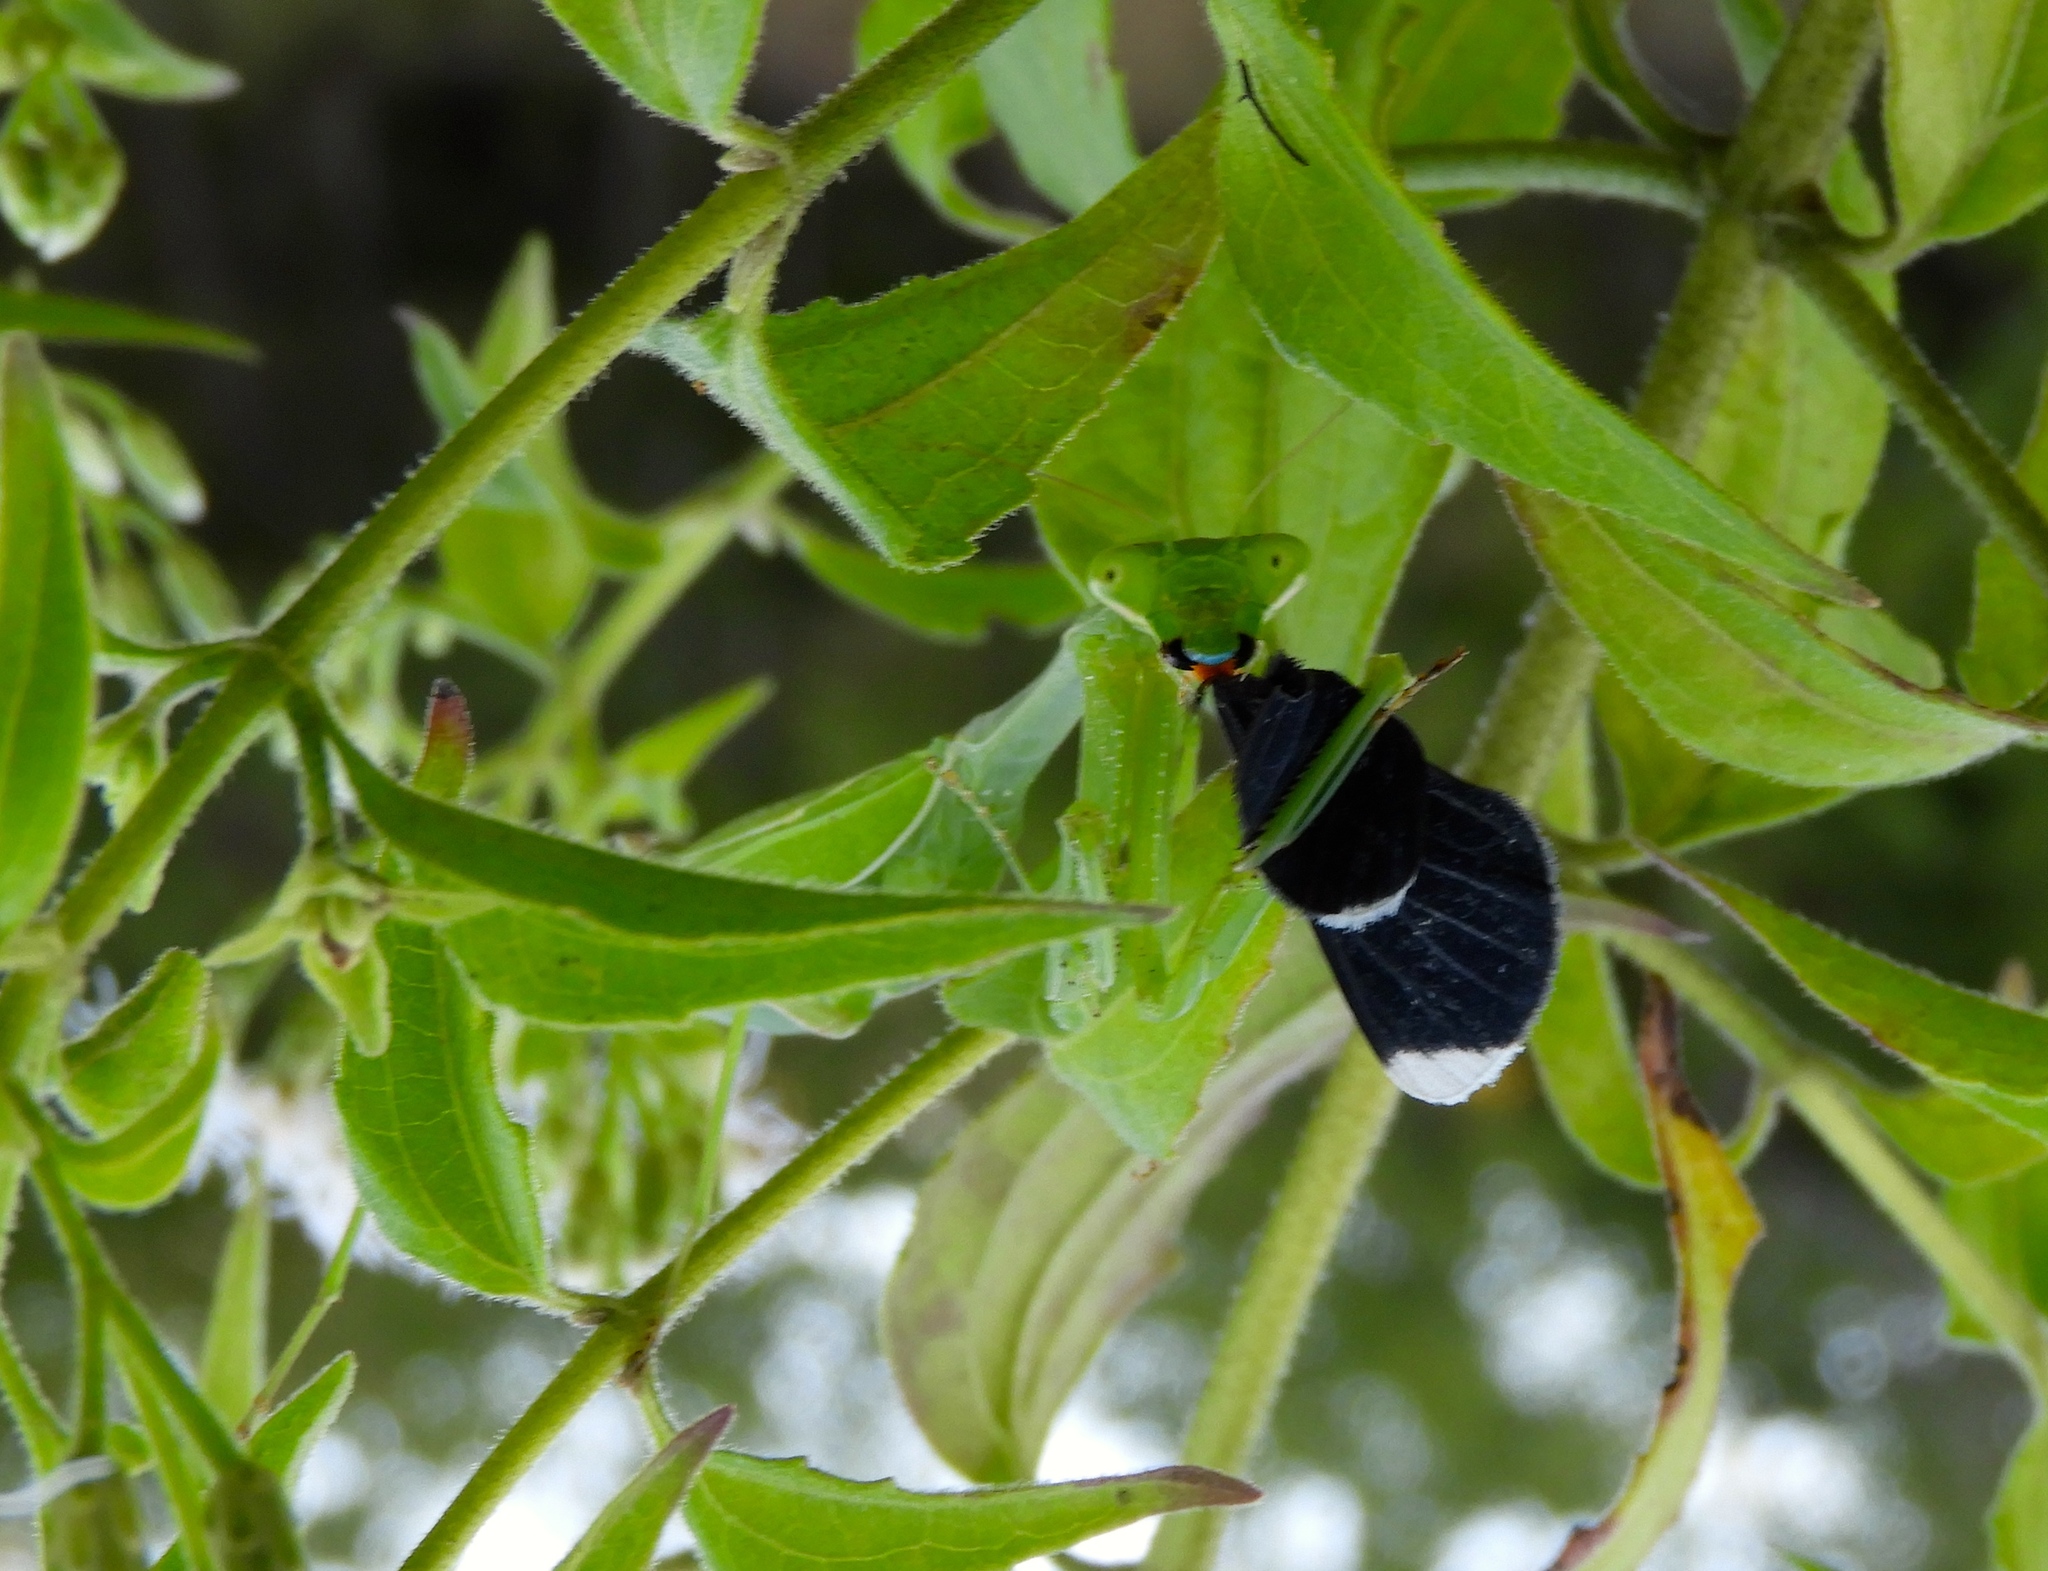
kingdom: Animalia
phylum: Arthropoda
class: Insecta
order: Mantodea
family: Mantidae
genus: Stagmomantis
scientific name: Stagmomantis limbata
